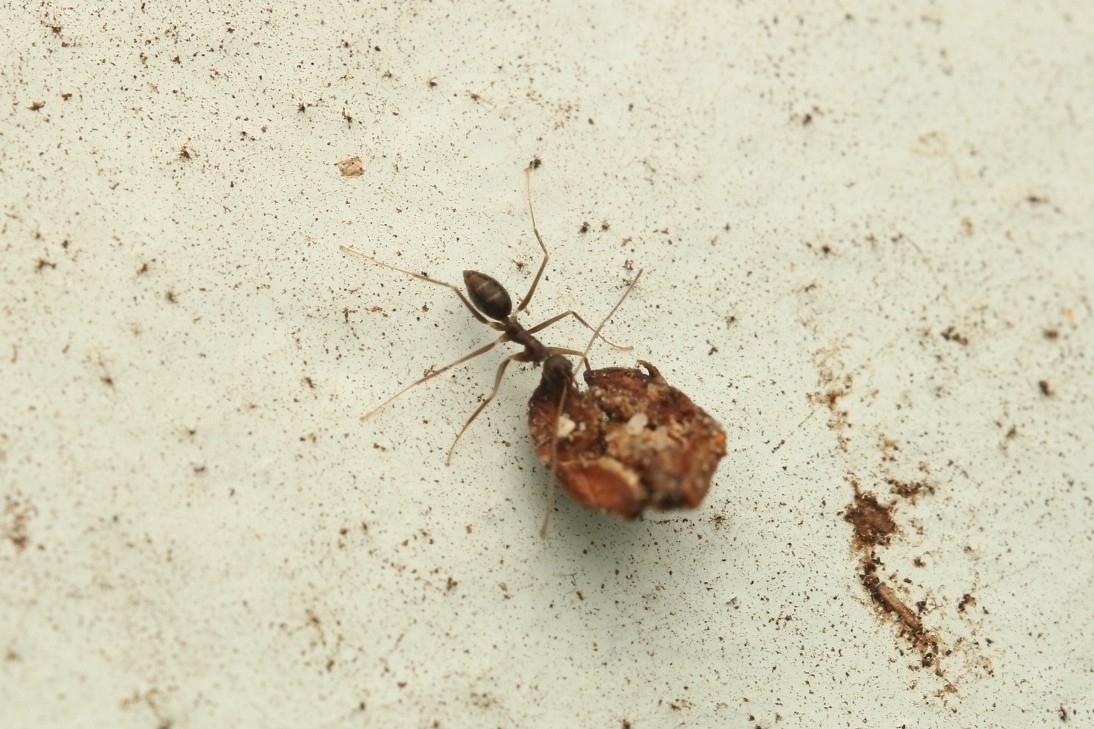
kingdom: Animalia
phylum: Arthropoda
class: Insecta
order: Hymenoptera
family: Formicidae
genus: Paratrechina
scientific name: Paratrechina longicornis
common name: Longhorned crazy ant
